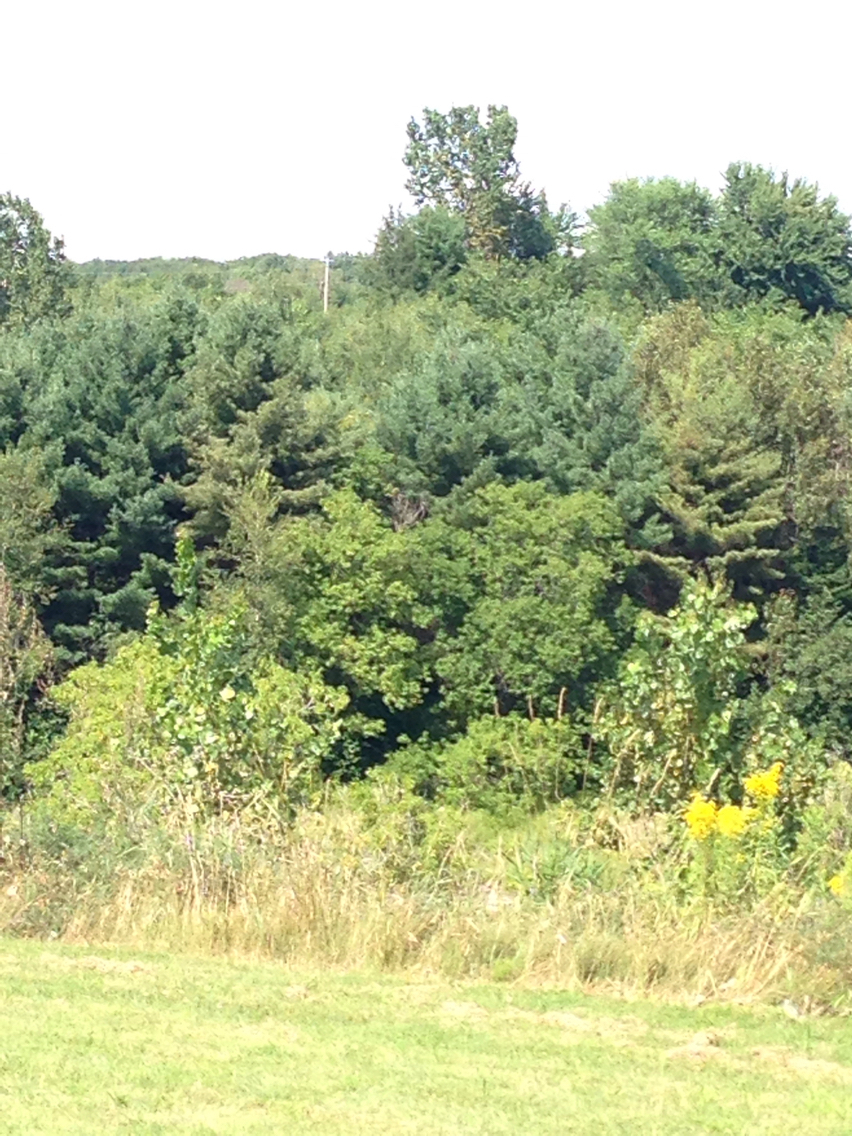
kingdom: Plantae
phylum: Tracheophyta
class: Pinopsida
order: Pinales
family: Pinaceae
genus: Pinus
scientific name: Pinus strobus
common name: Weymouth pine
